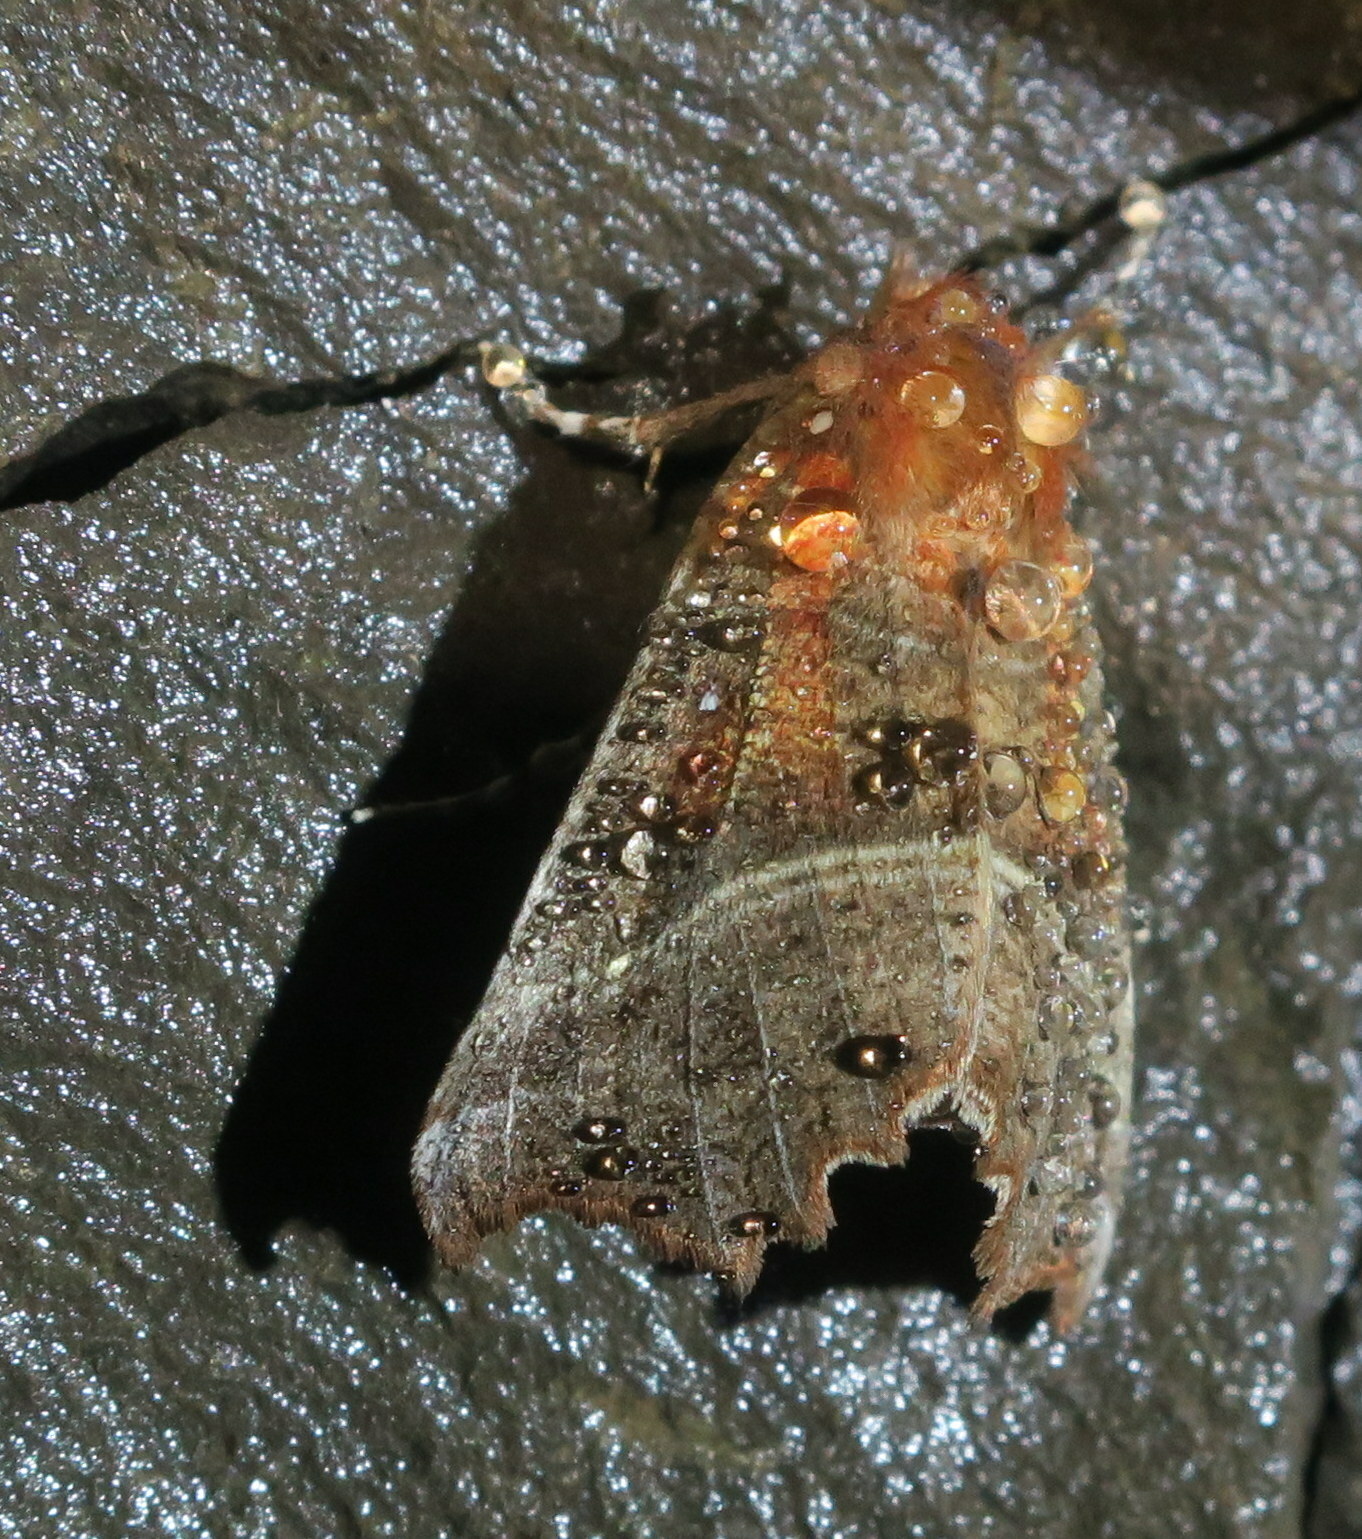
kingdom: Animalia
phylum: Arthropoda
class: Insecta
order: Lepidoptera
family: Erebidae
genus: Scoliopteryx
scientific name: Scoliopteryx libatrix
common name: Herald
